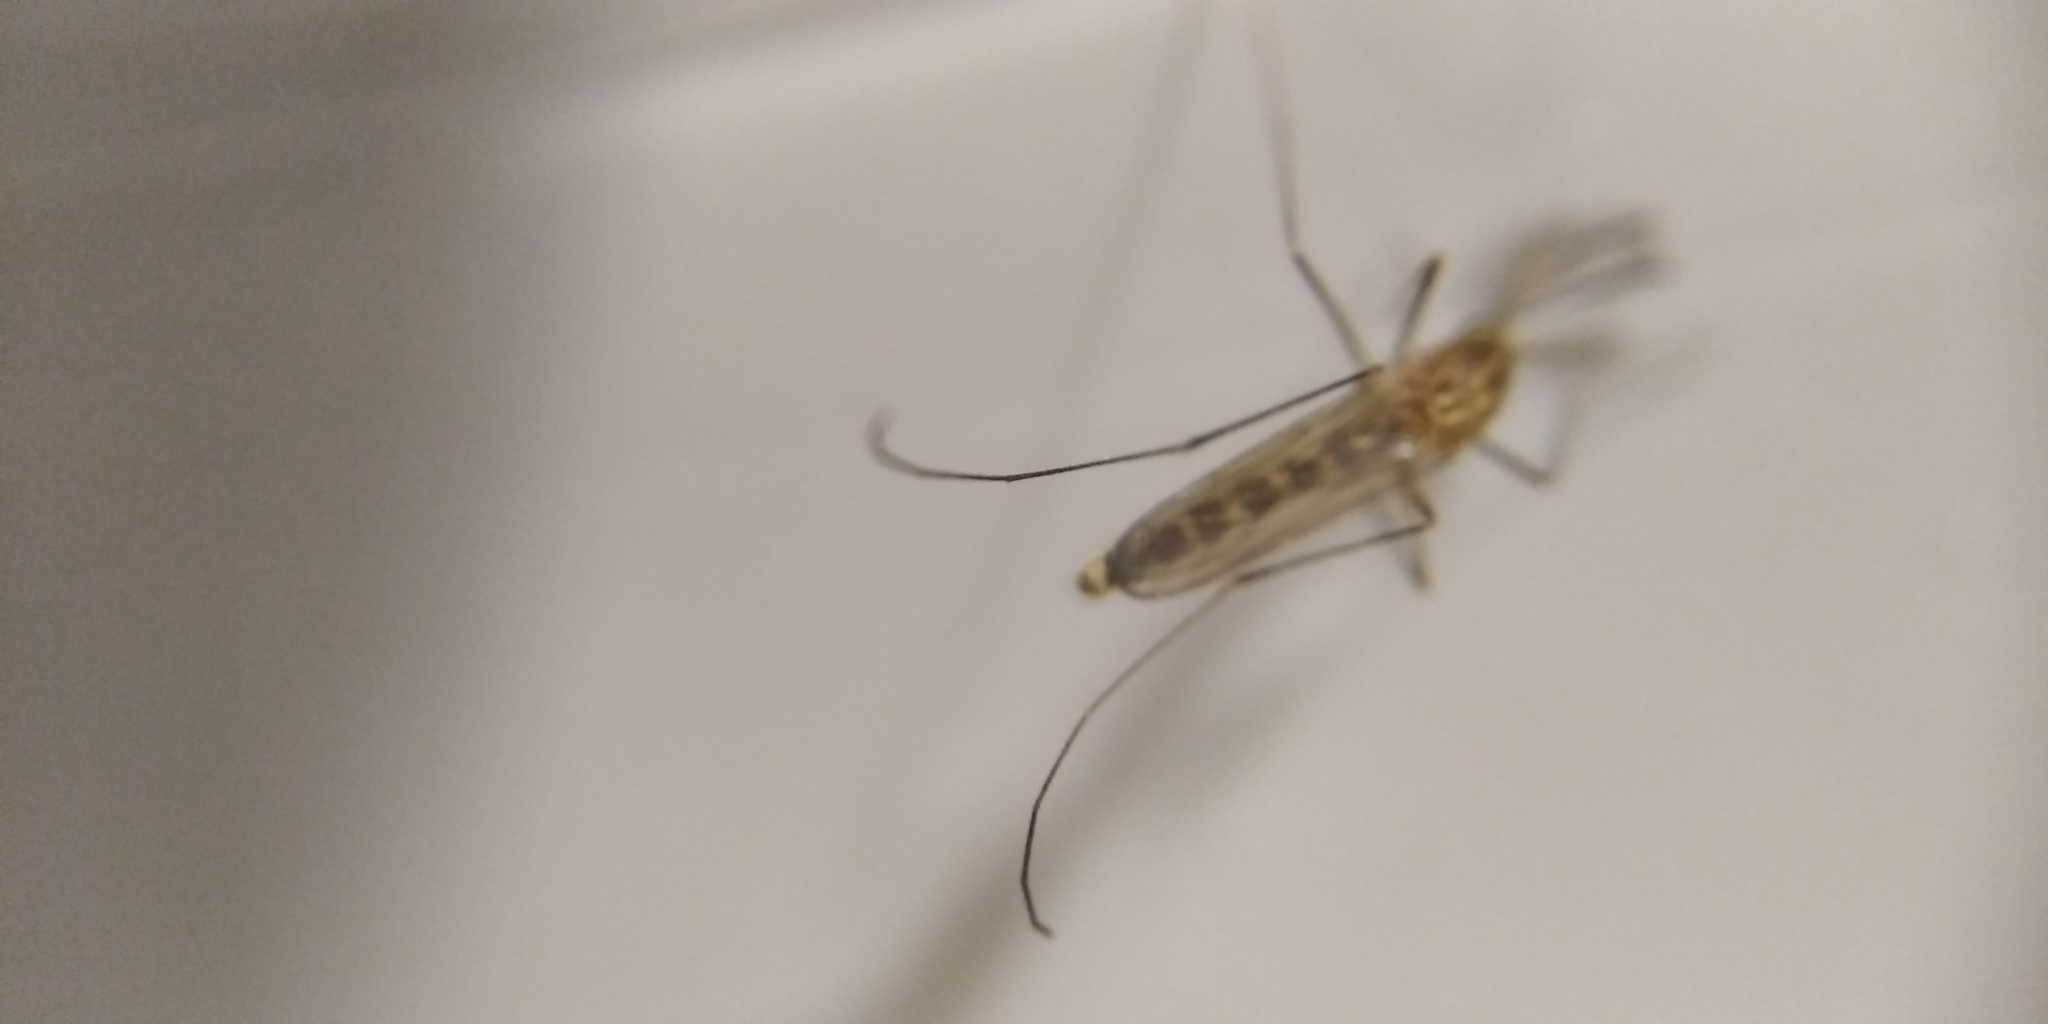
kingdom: Animalia
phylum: Arthropoda
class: Insecta
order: Diptera
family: Culicidae
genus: Culex
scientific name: Culex pipiens
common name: Mosquito
